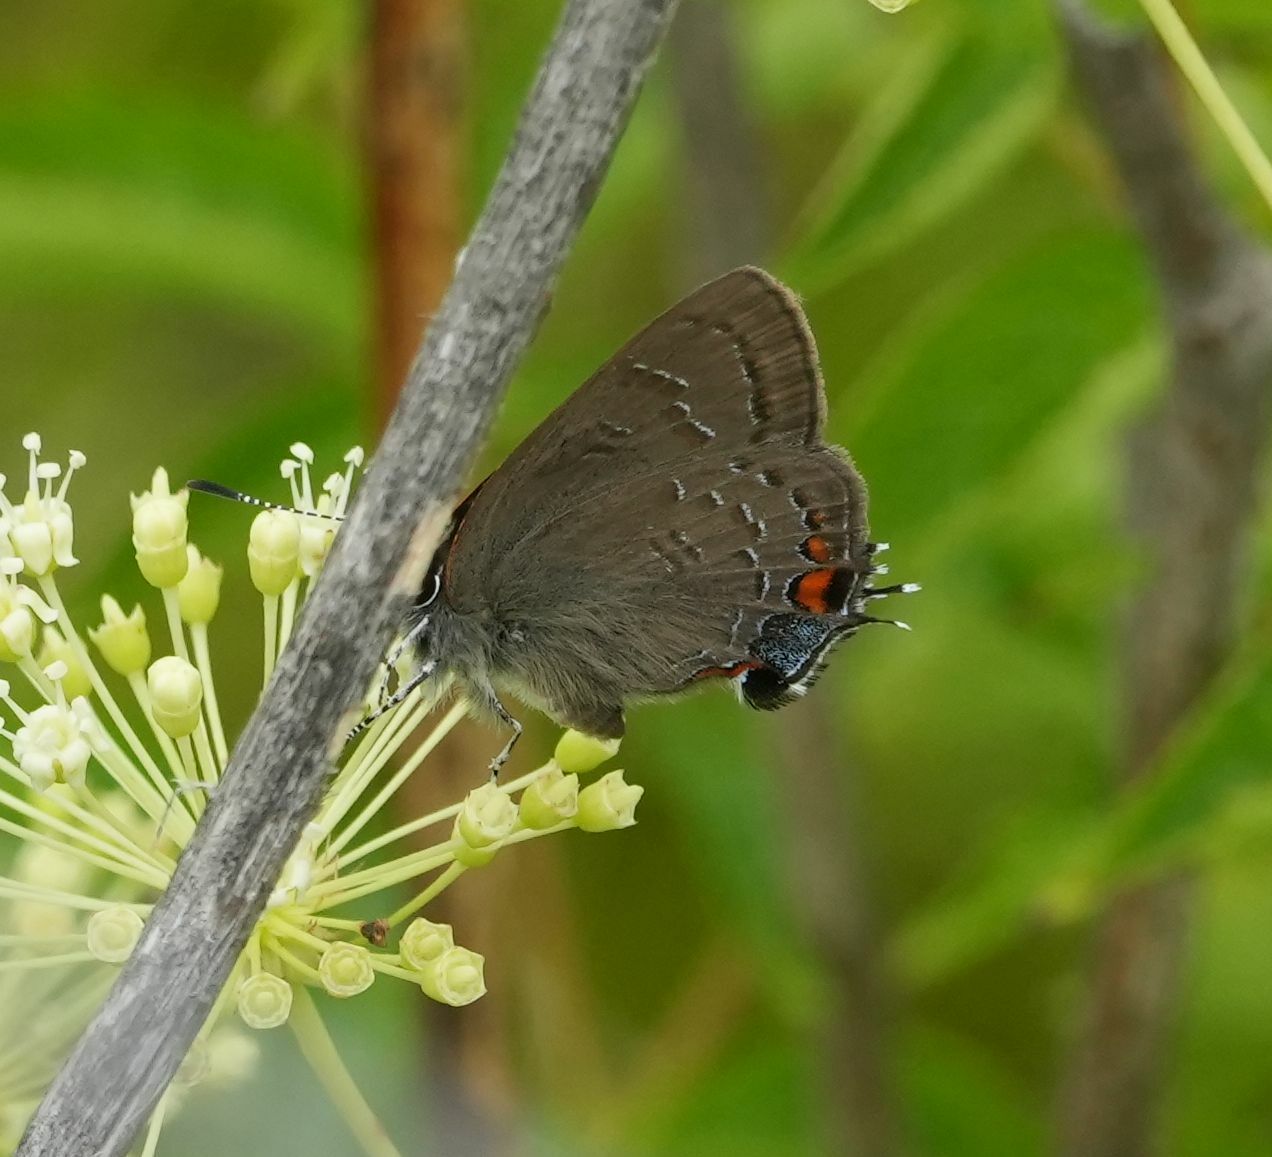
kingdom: Animalia
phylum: Arthropoda
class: Insecta
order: Lepidoptera
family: Lycaenidae
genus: Satyrium
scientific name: Satyrium calanus
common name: Banded hairstreak
